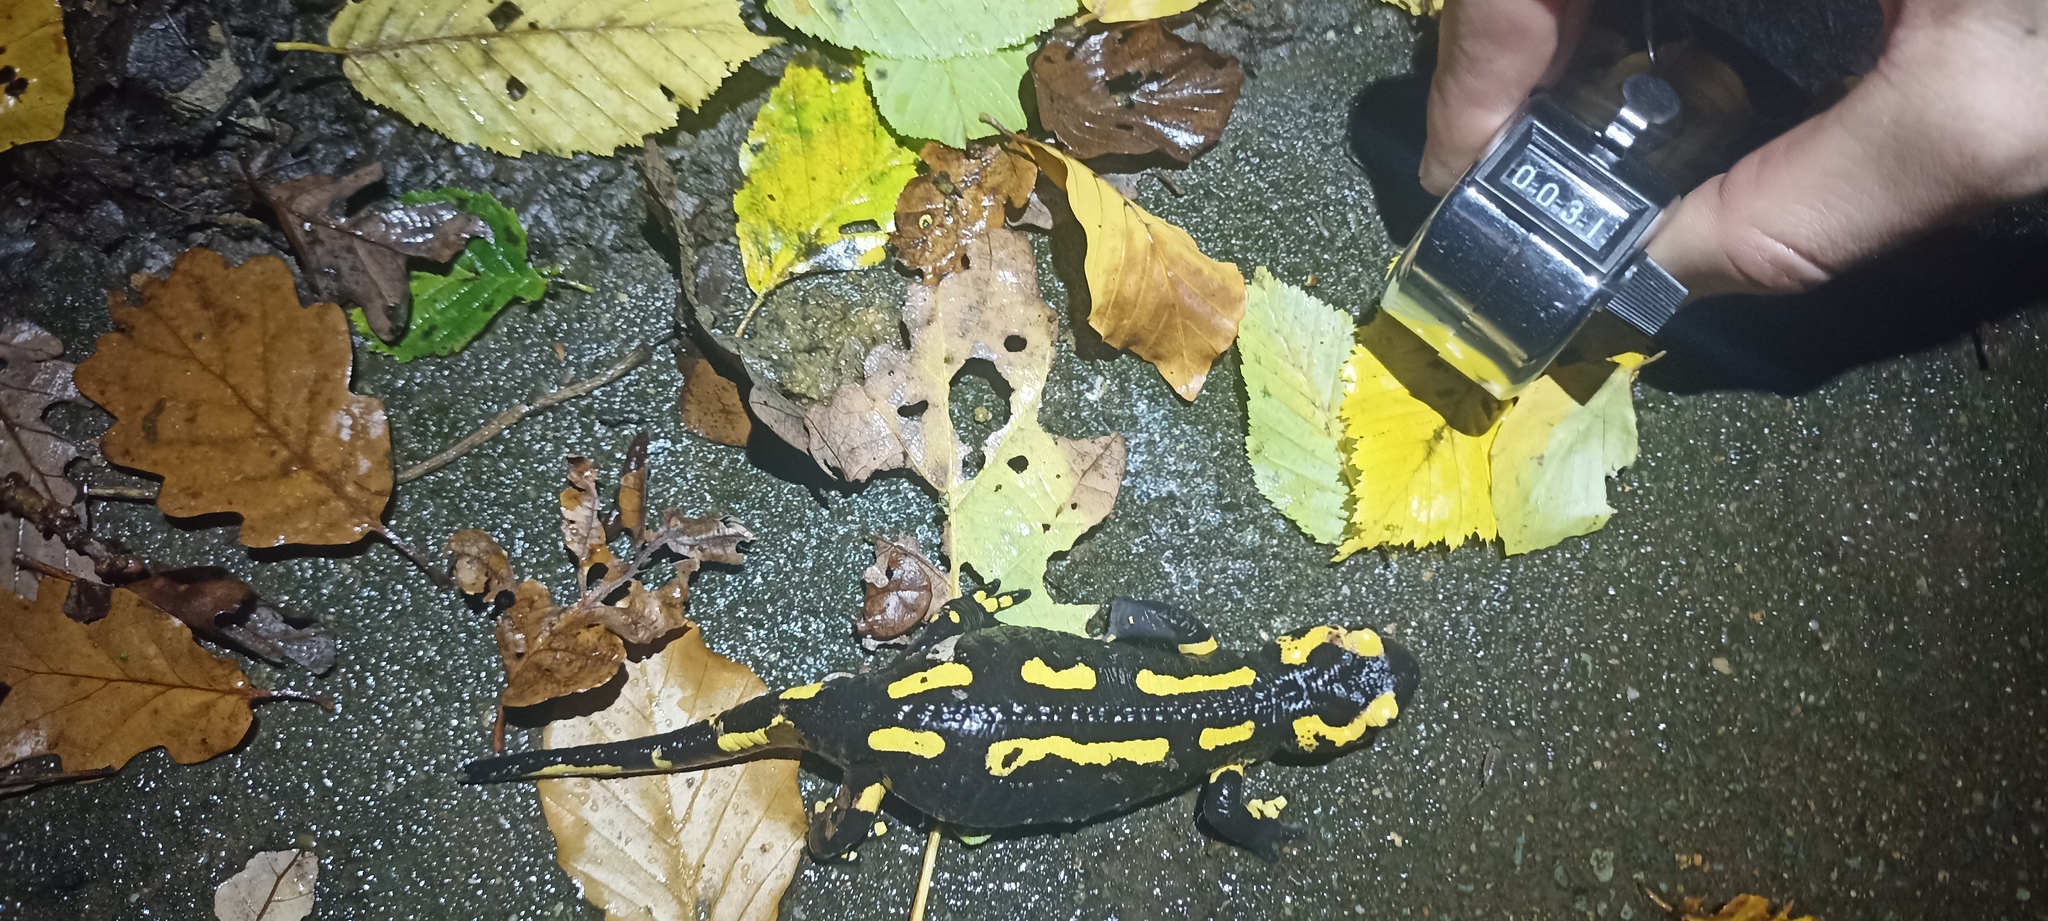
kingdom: Animalia
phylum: Chordata
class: Amphibia
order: Caudata
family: Salamandridae
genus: Salamandra
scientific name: Salamandra salamandra
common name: Fire salamander
